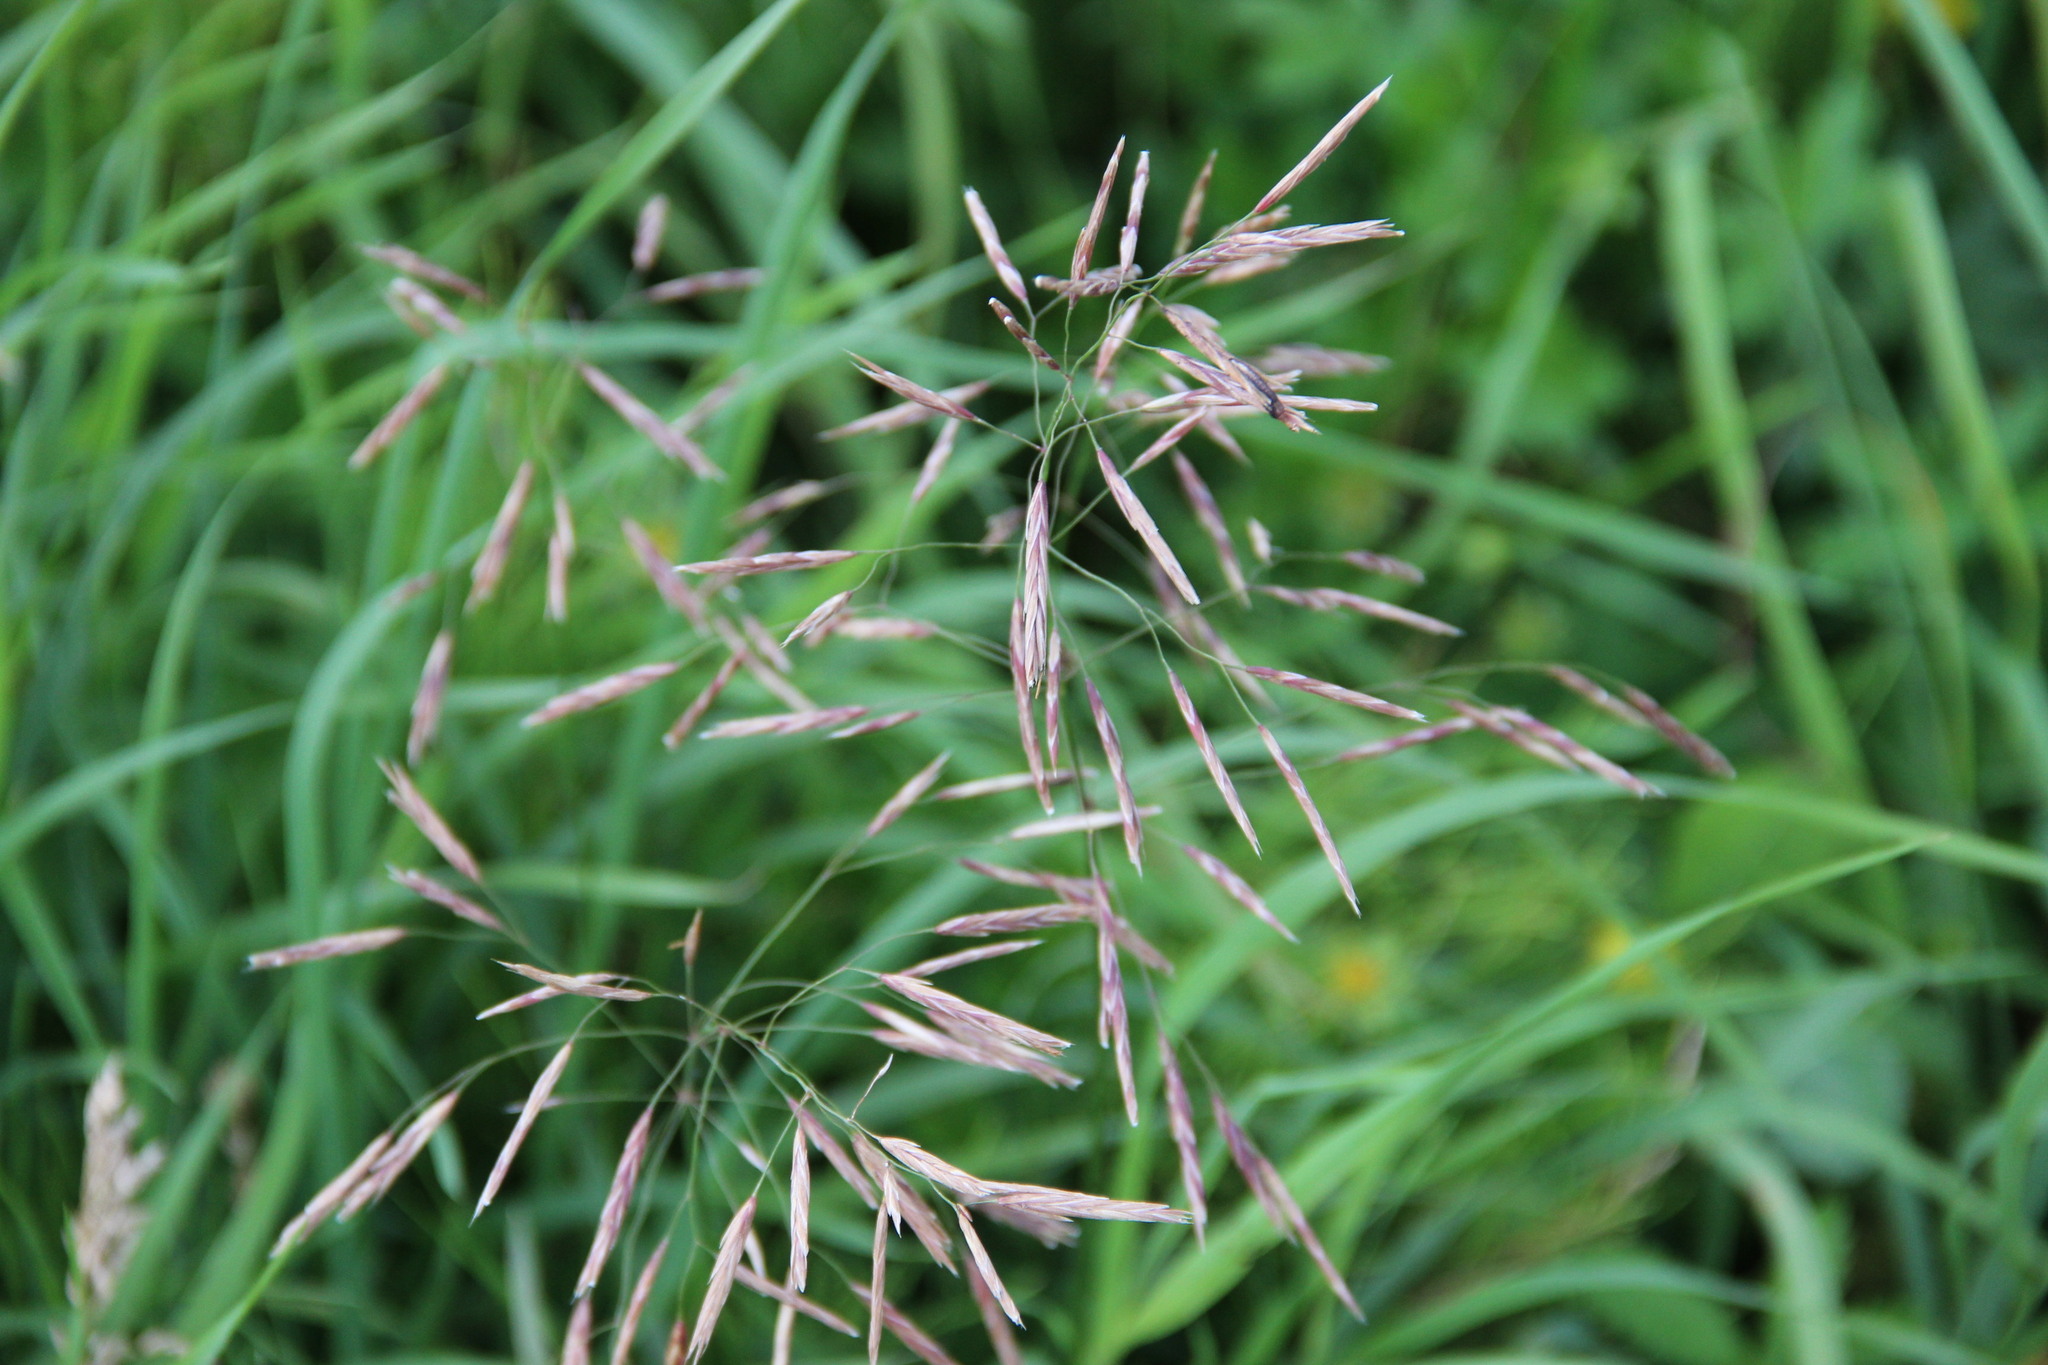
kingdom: Plantae
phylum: Tracheophyta
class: Liliopsida
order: Poales
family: Poaceae
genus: Bromus
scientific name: Bromus inermis
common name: Smooth brome
